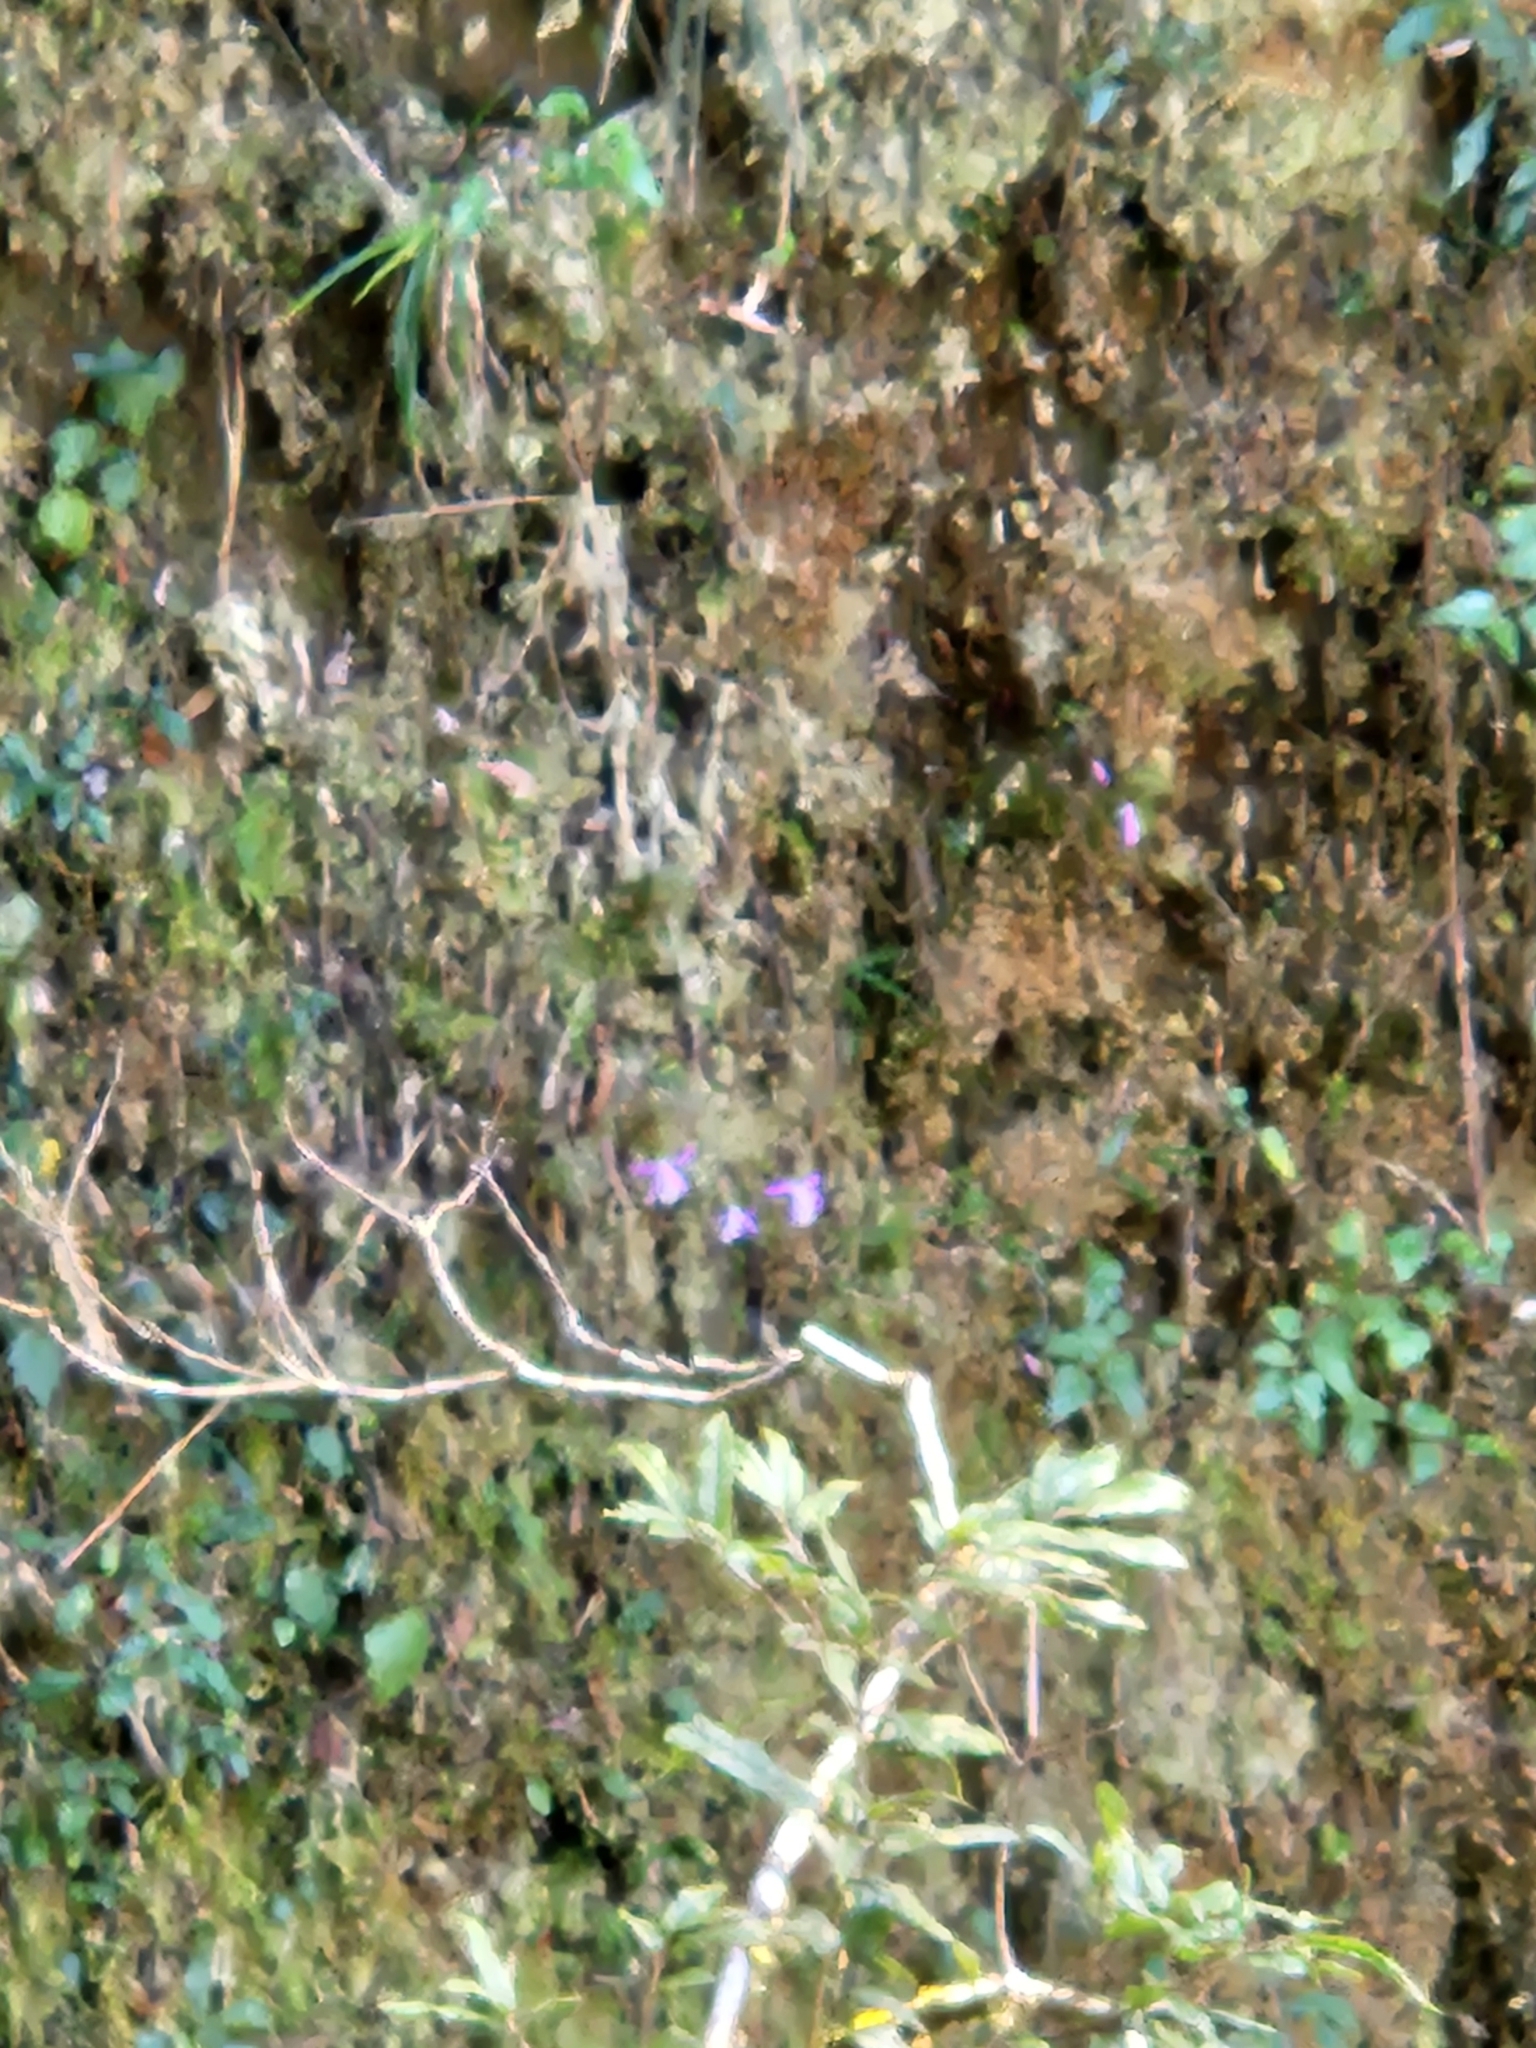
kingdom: Plantae
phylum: Tracheophyta
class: Liliopsida
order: Asparagales
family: Orchidaceae
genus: Pleione
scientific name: Pleione formosana
